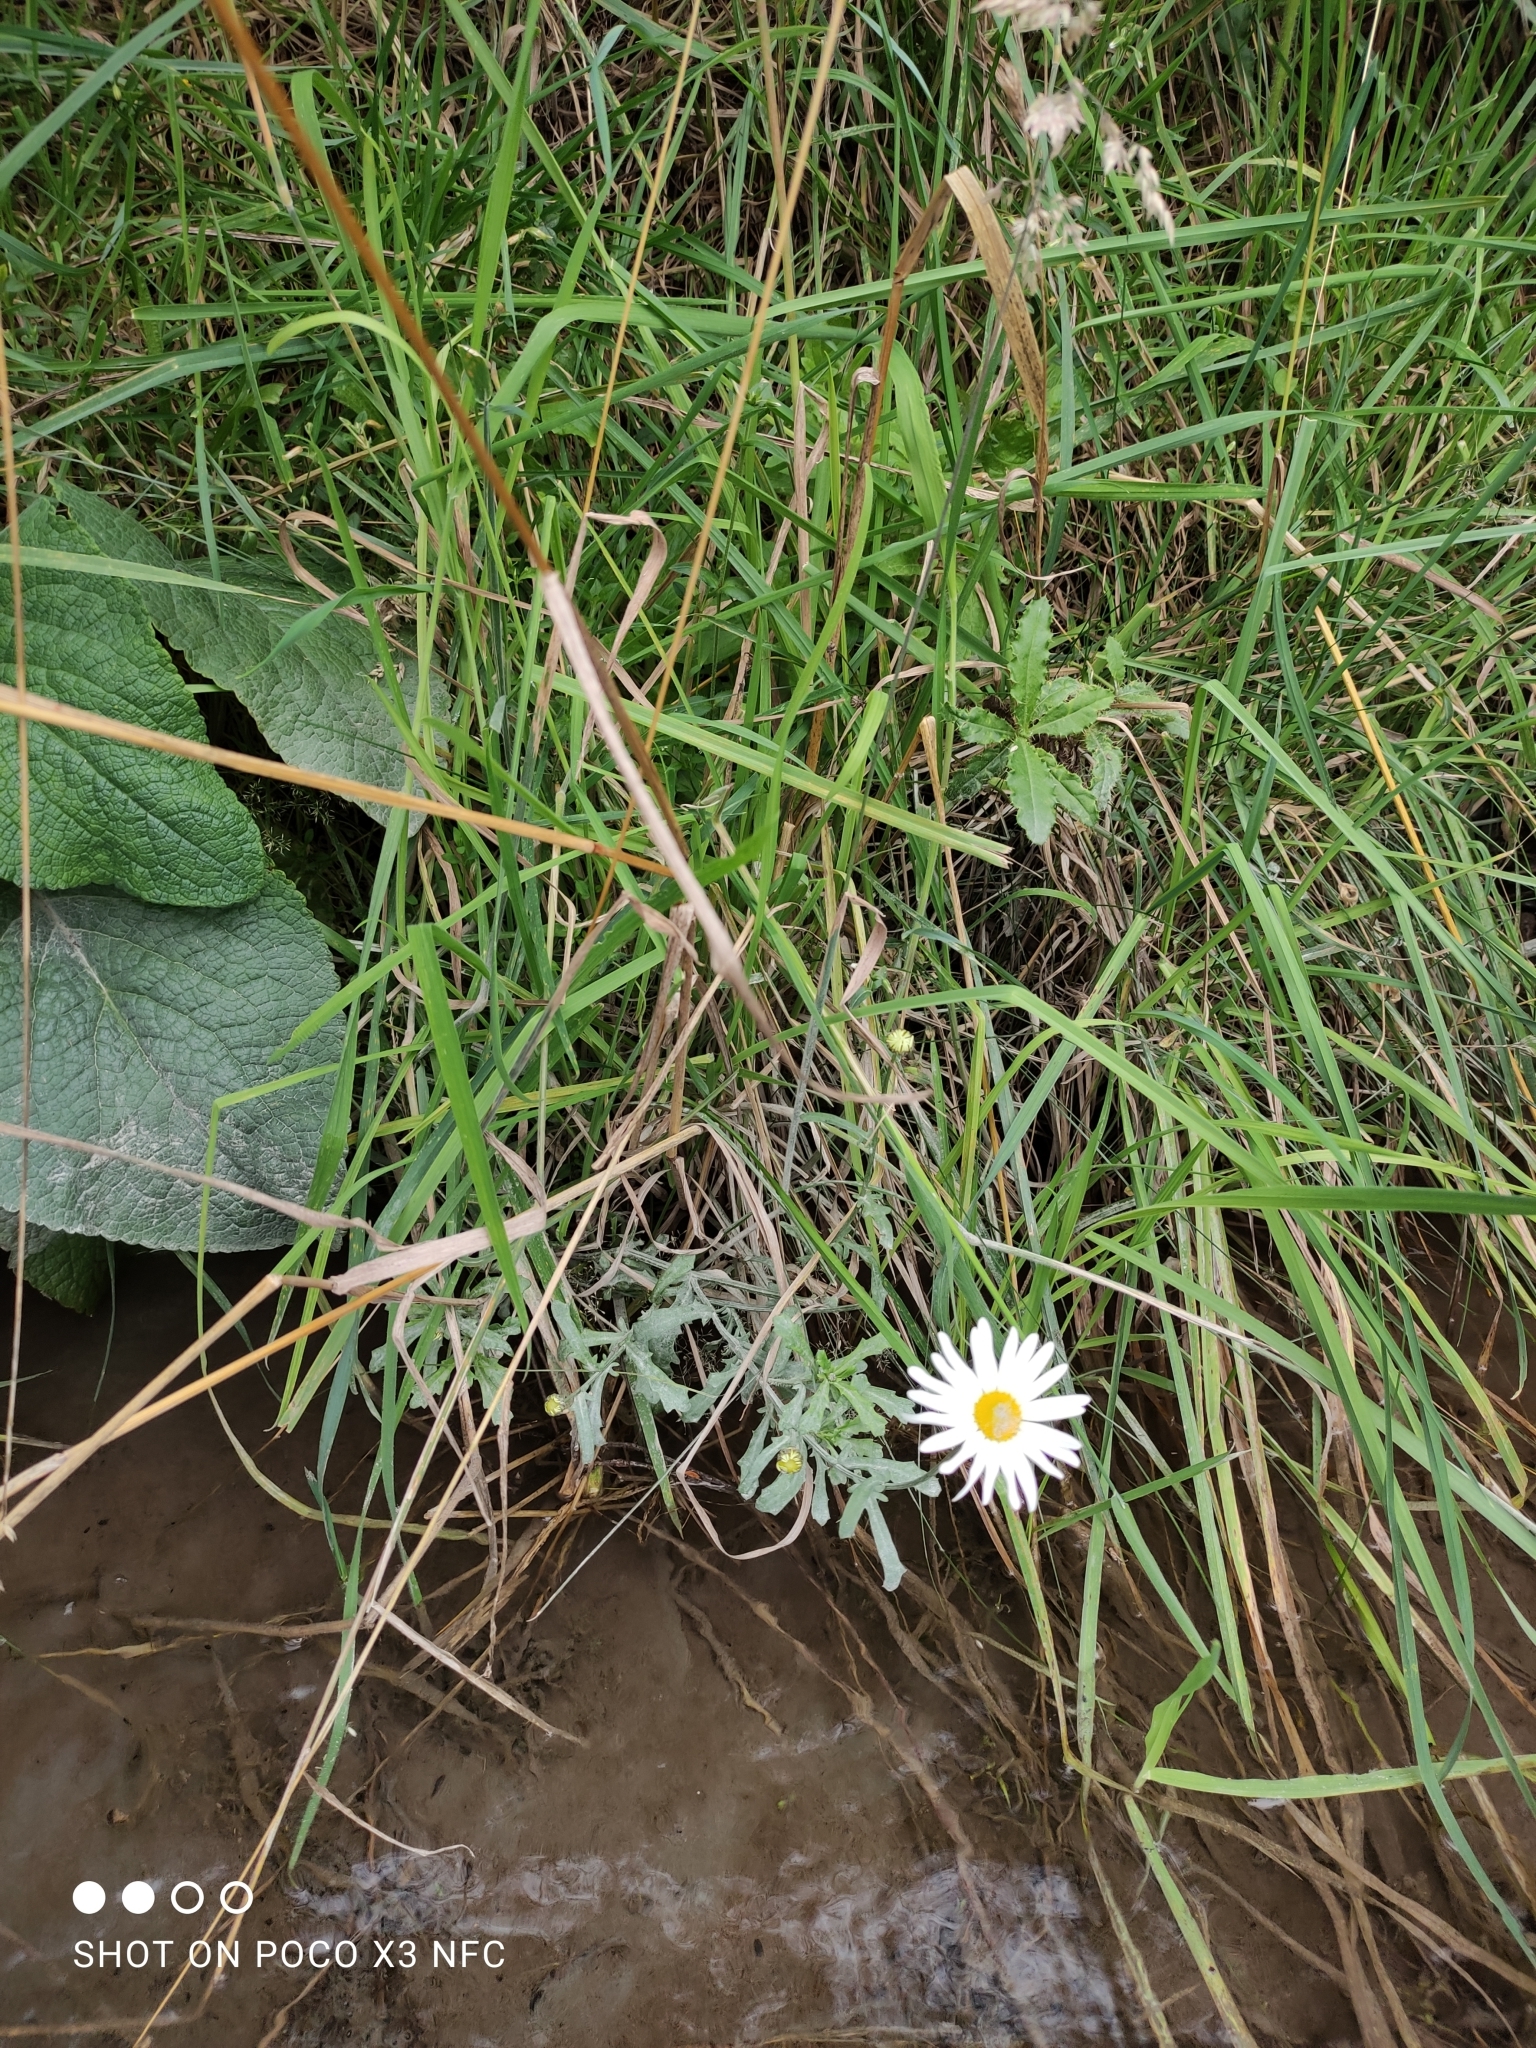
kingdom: Plantae
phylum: Tracheophyta
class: Magnoliopsida
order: Asterales
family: Asteraceae
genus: Leucanthemum
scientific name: Leucanthemum vulgare
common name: Oxeye daisy
